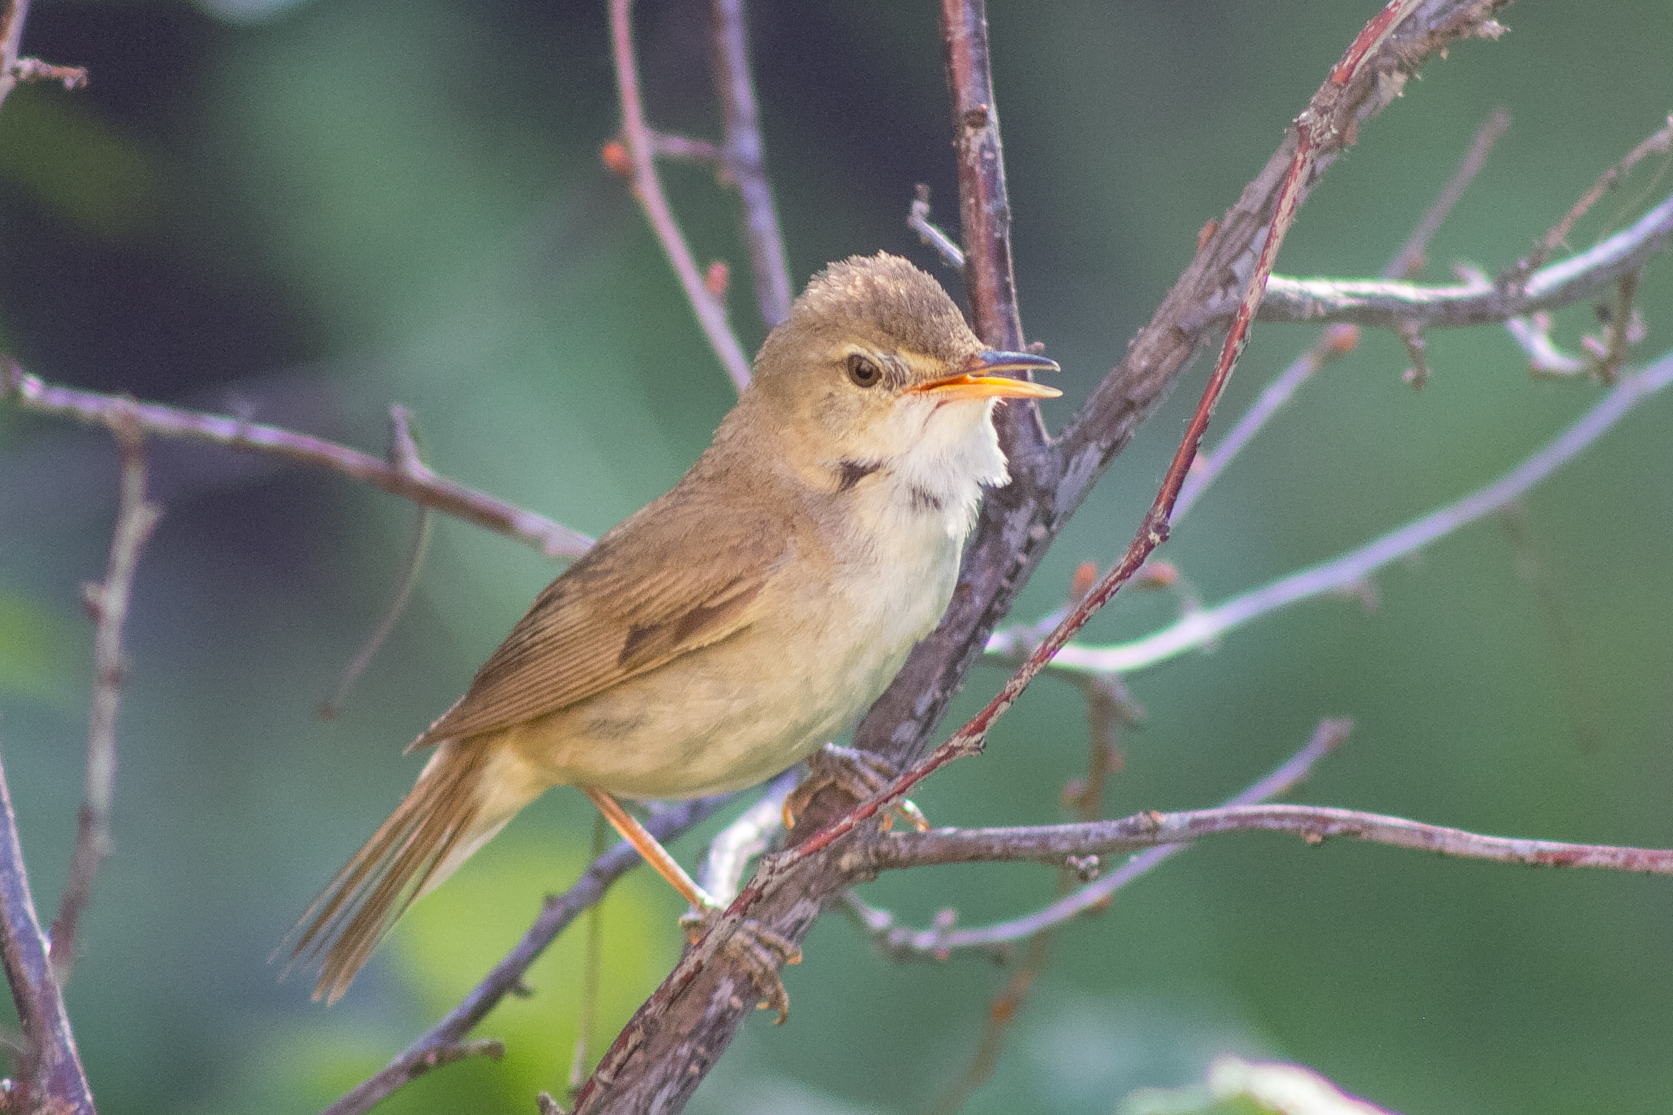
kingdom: Animalia
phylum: Chordata
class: Aves
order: Passeriformes
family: Acrocephalidae
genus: Acrocephalus
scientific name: Acrocephalus dumetorum
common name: Blyth's reed warbler
